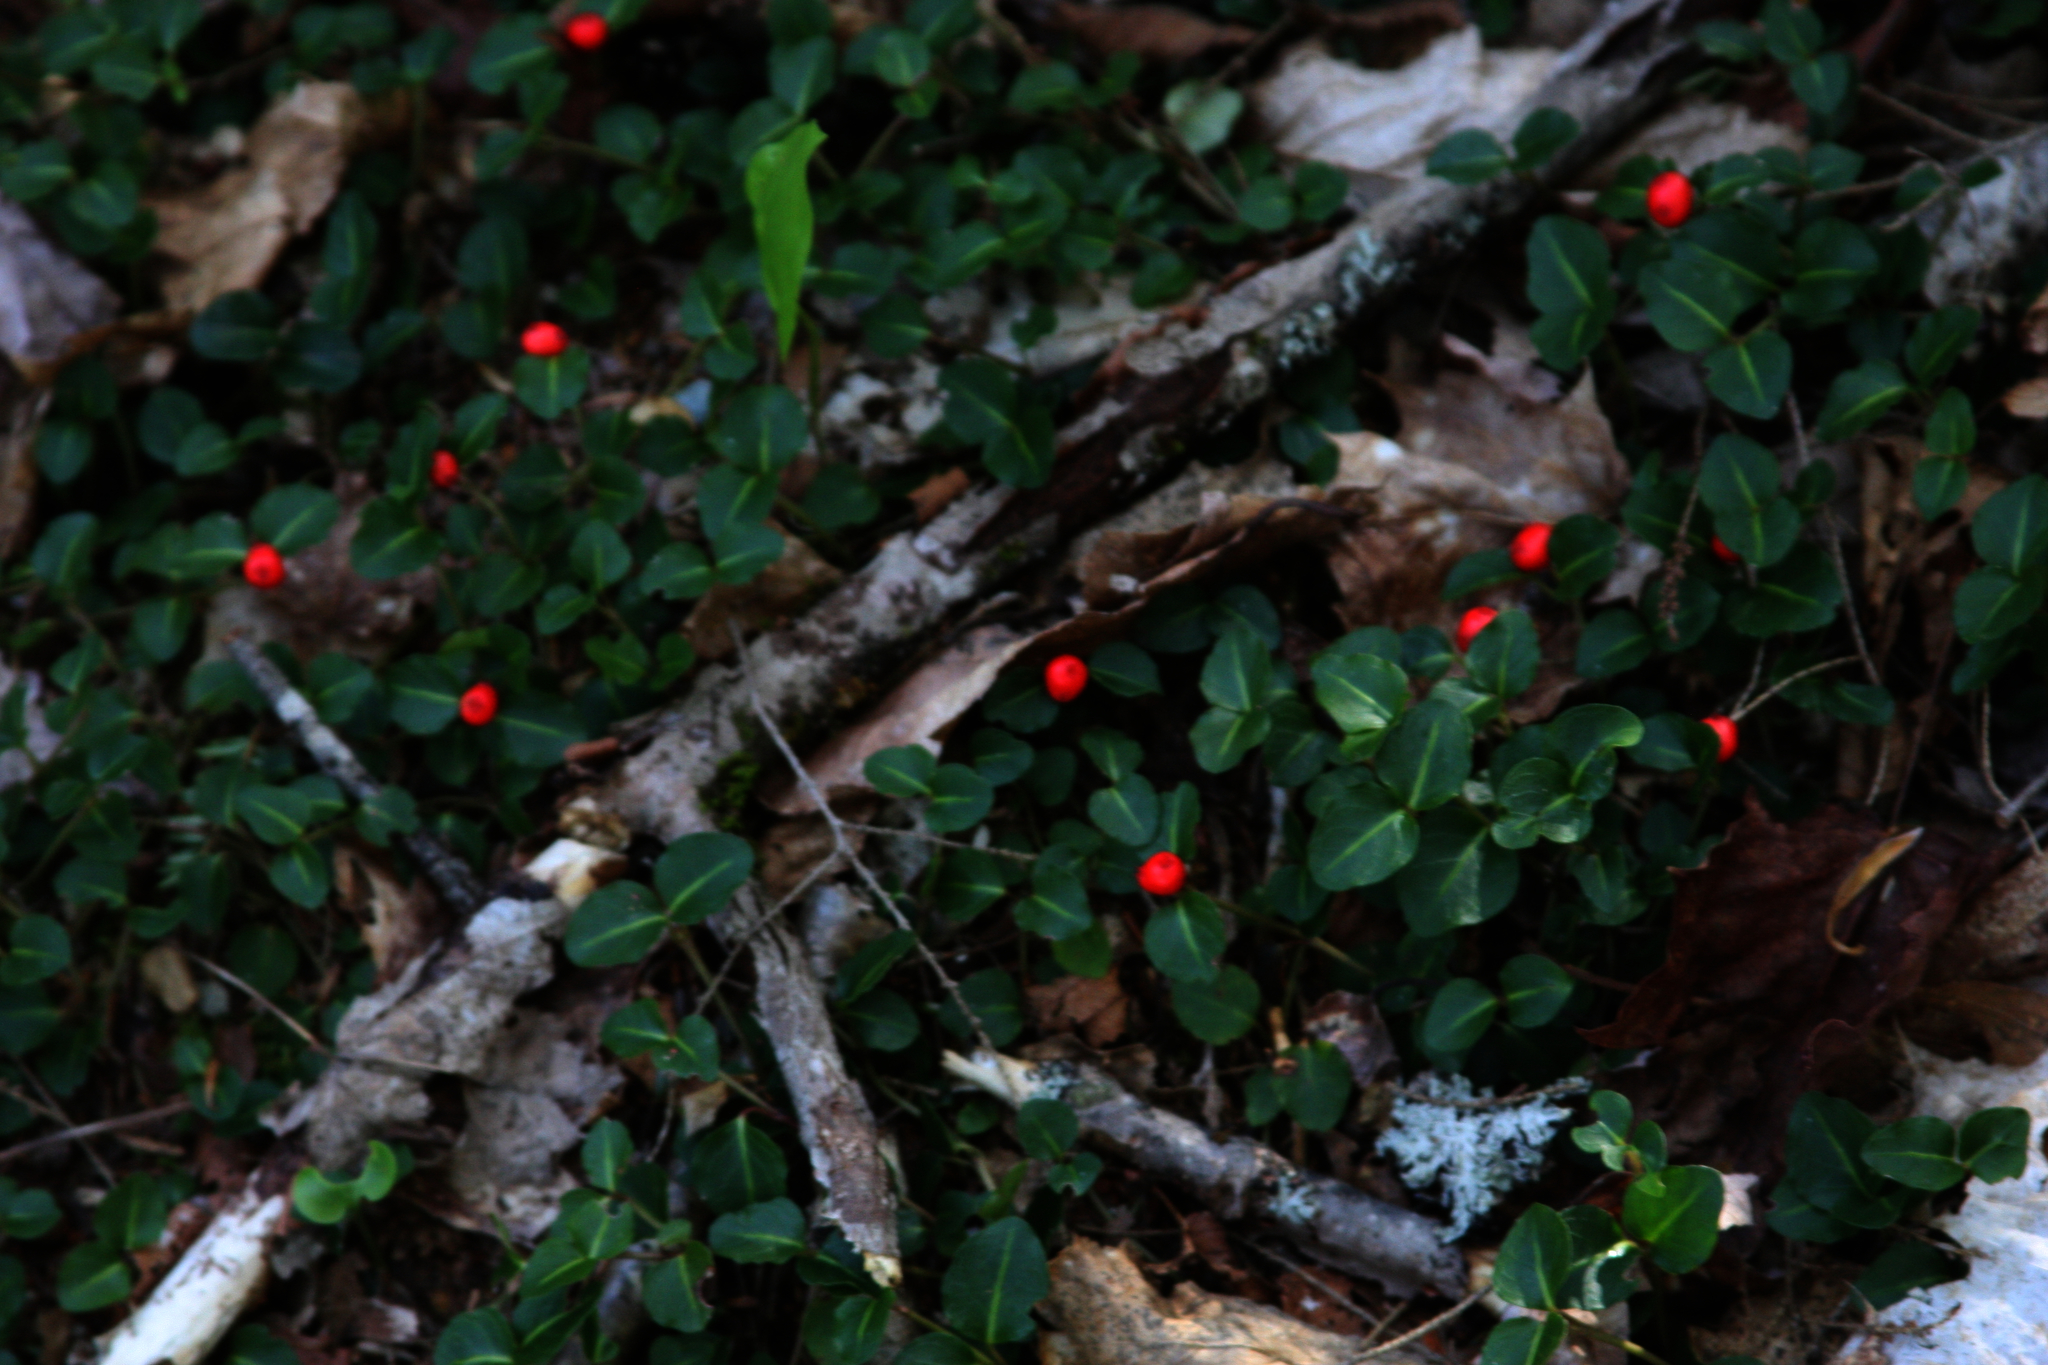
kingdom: Plantae
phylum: Tracheophyta
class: Magnoliopsida
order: Gentianales
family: Rubiaceae
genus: Mitchella
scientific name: Mitchella repens
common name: Partridge-berry
